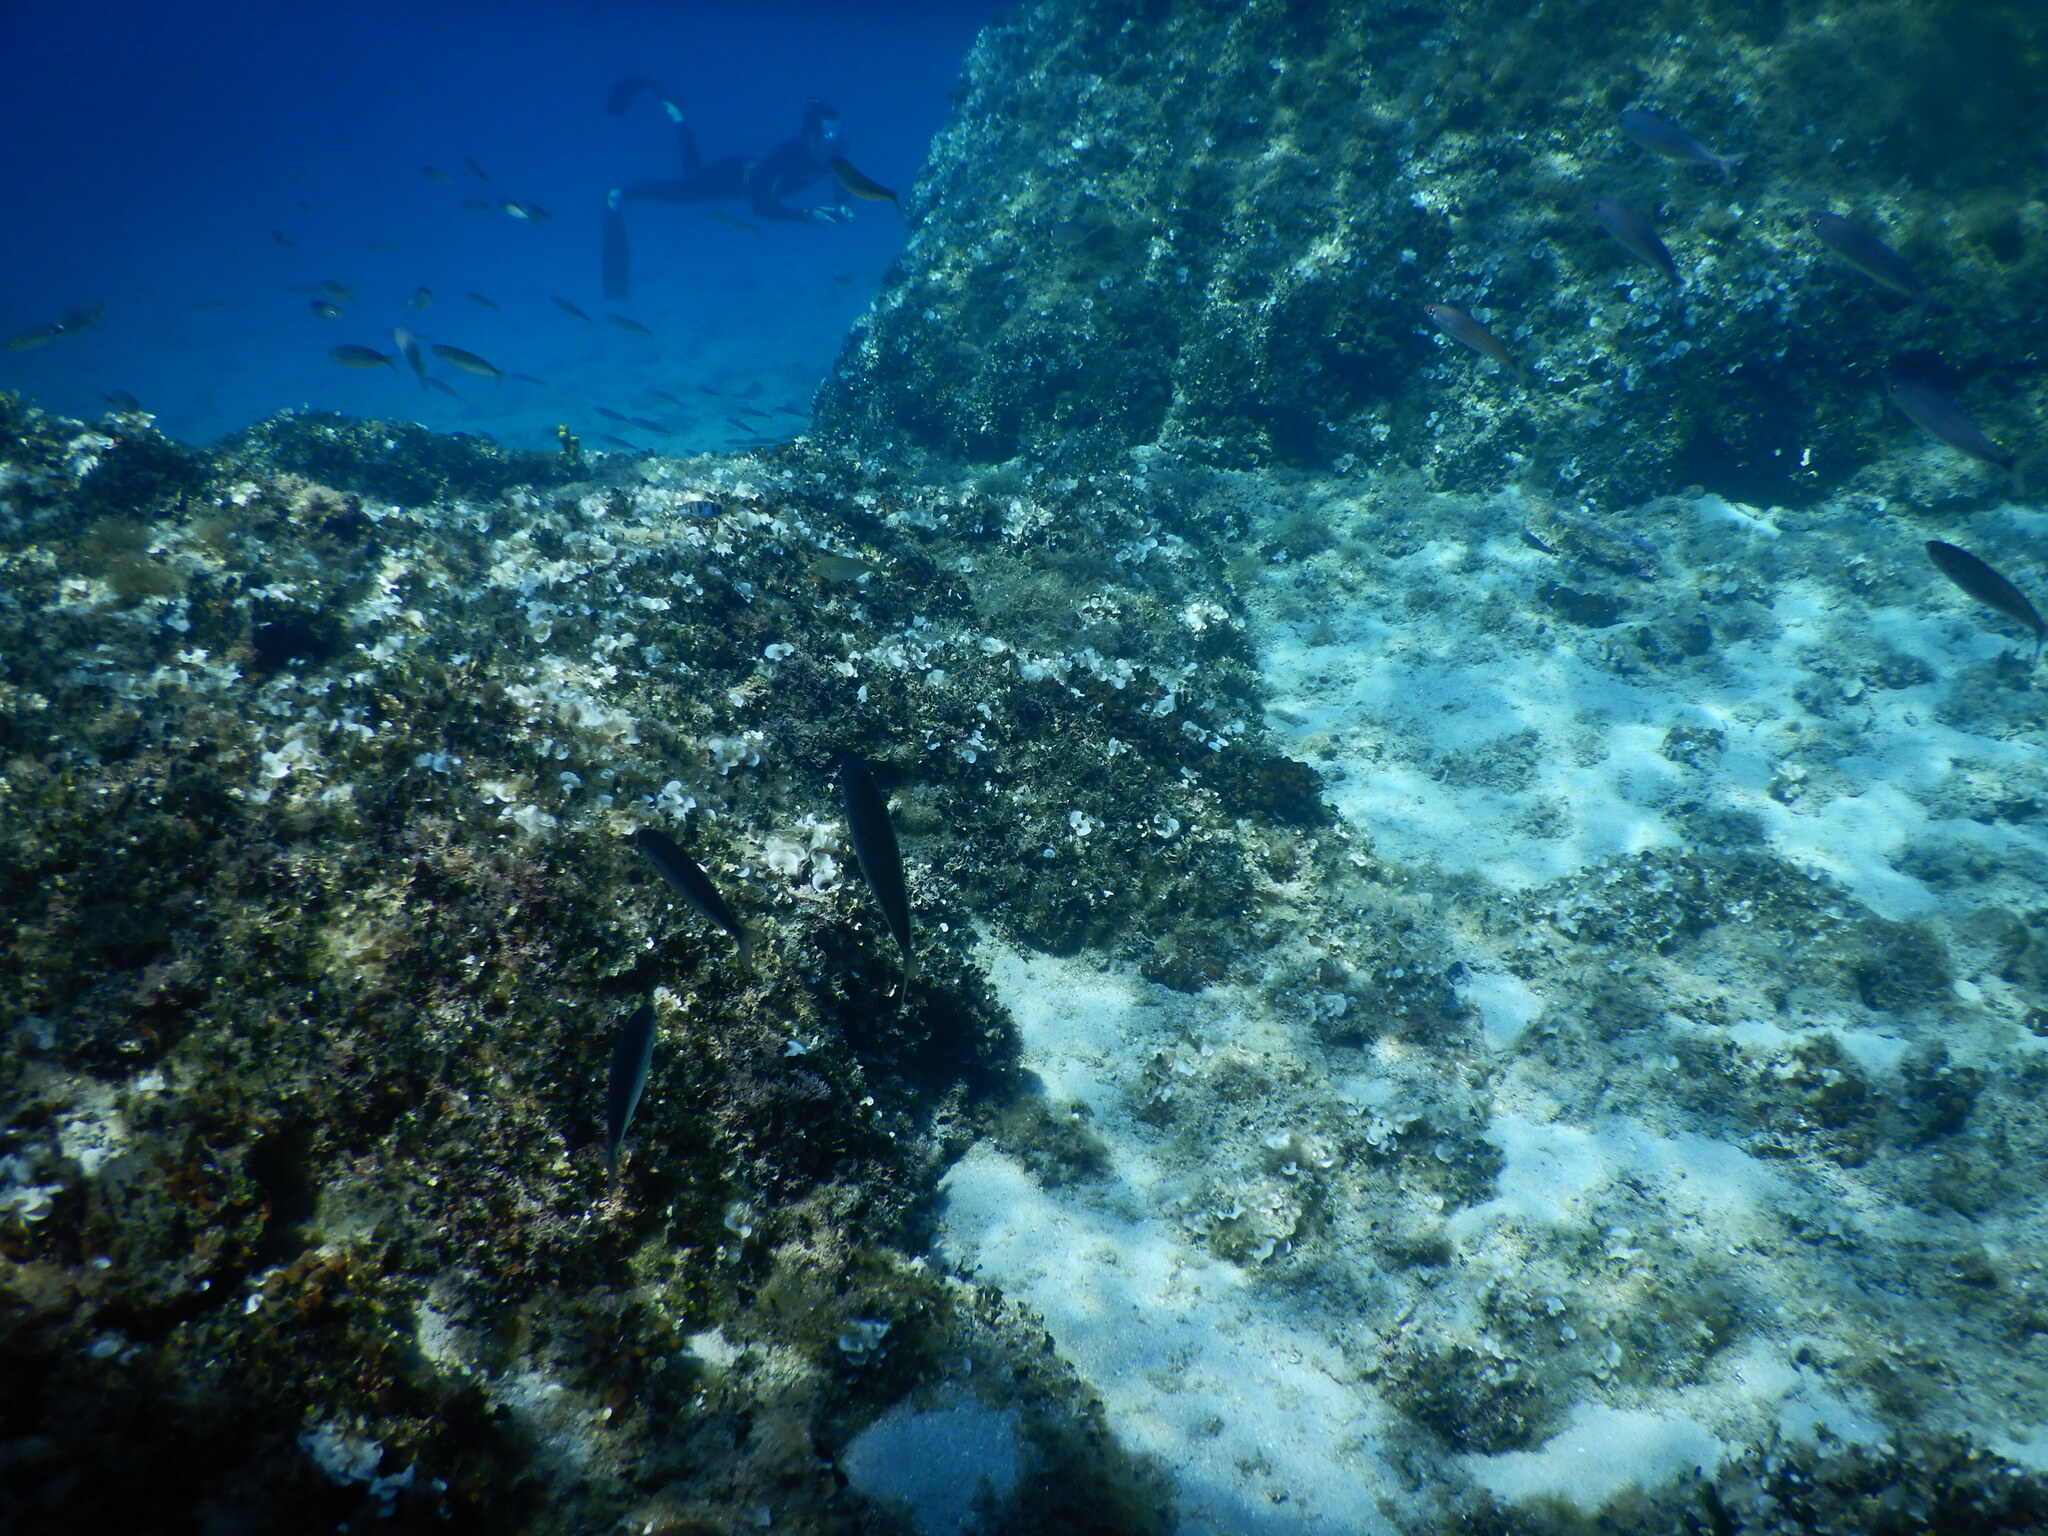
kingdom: Animalia
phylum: Chordata
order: Perciformes
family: Sparidae
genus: Boops
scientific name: Boops boops
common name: Bogue
